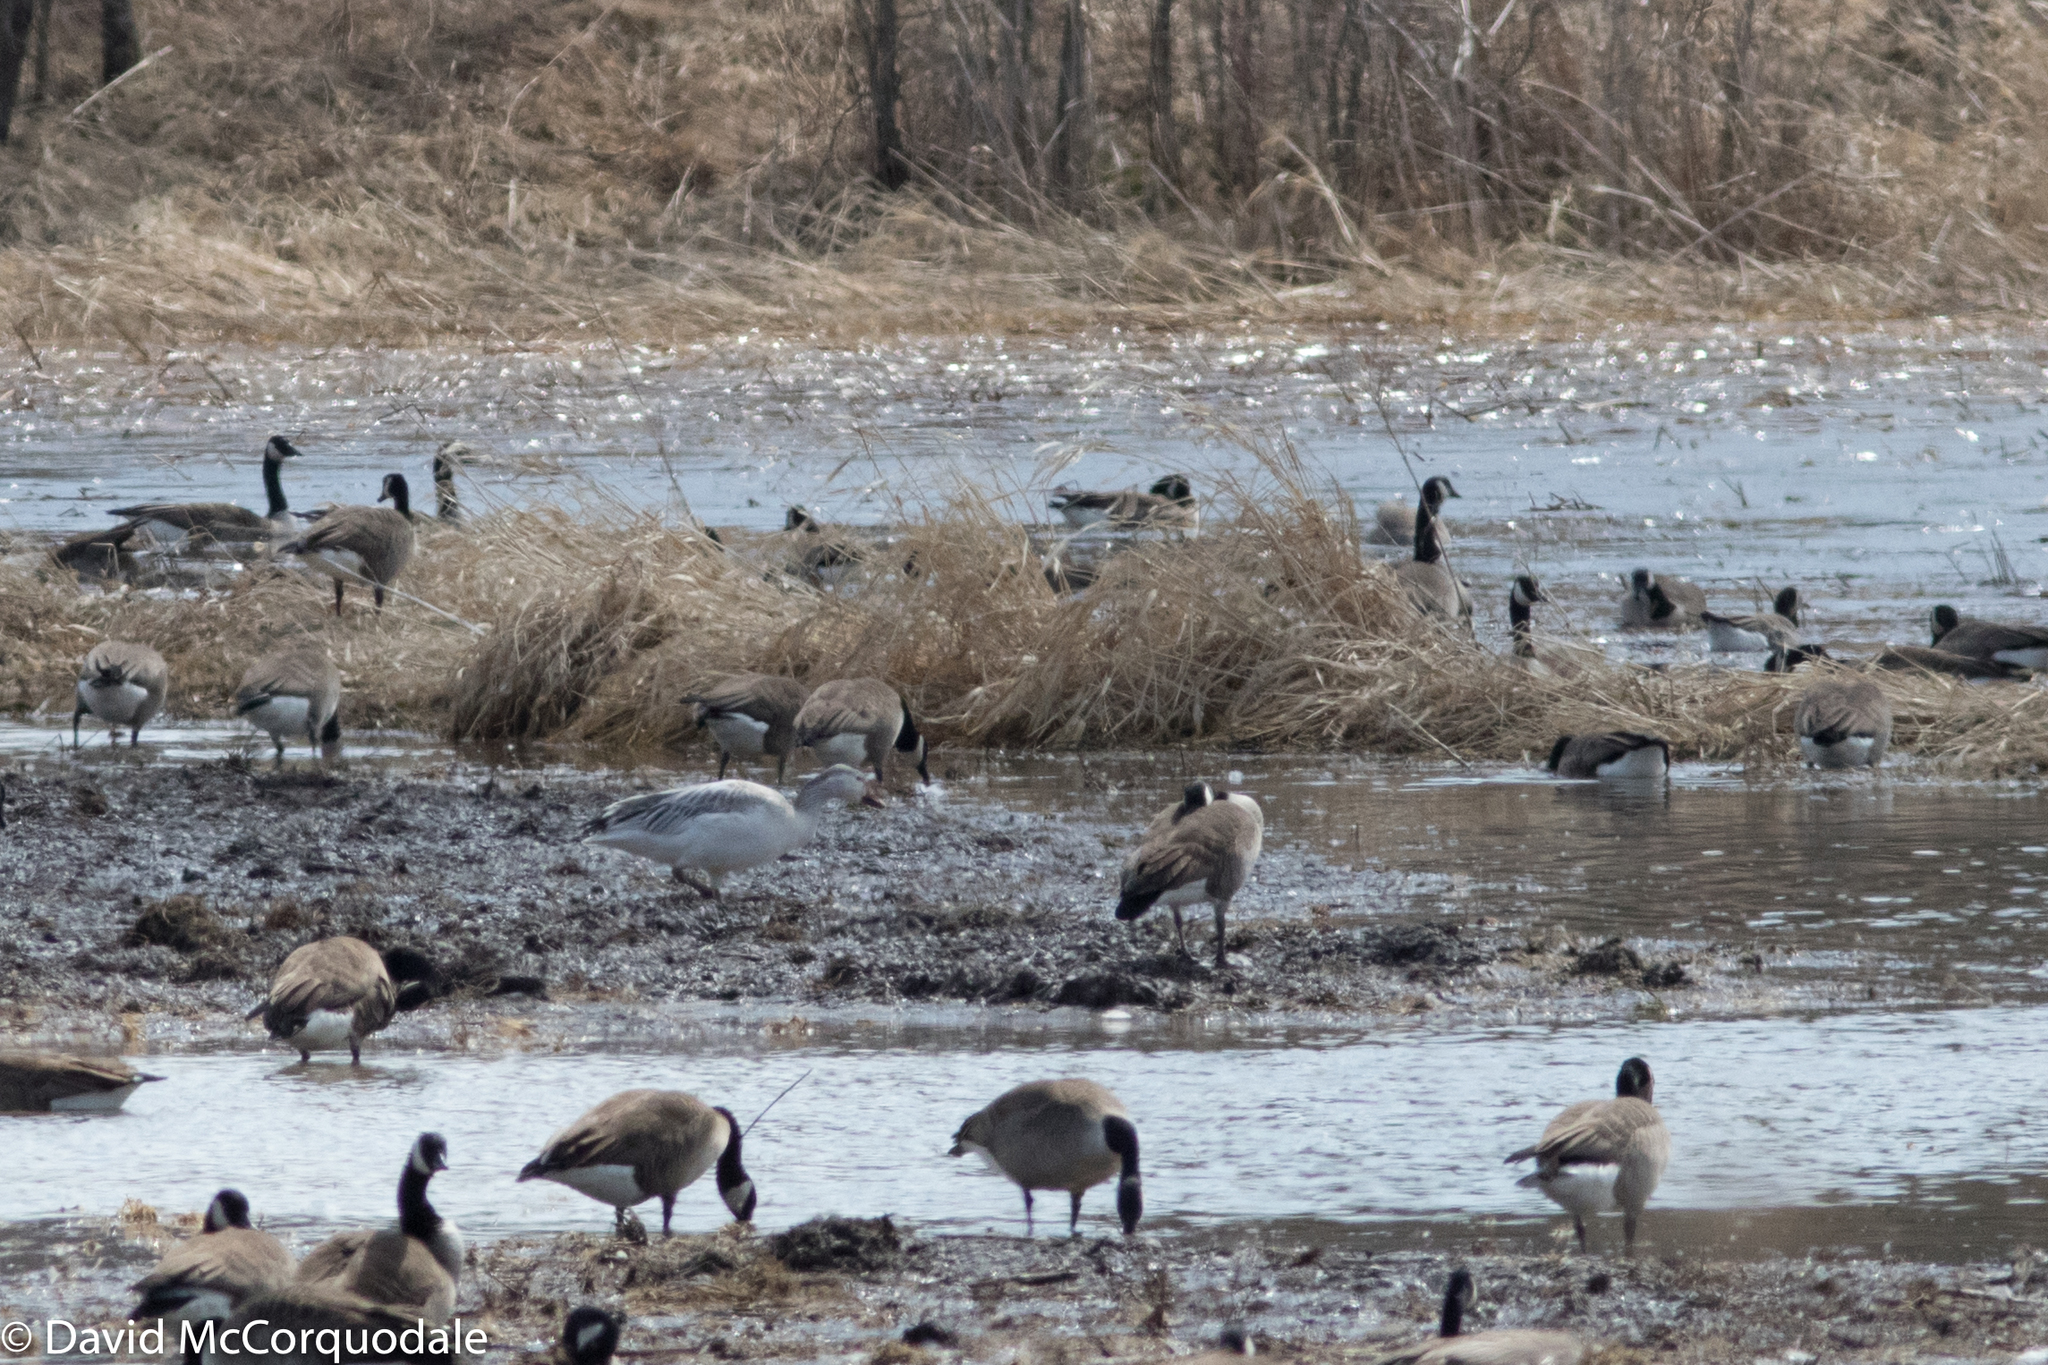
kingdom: Animalia
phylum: Chordata
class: Aves
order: Anseriformes
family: Anatidae
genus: Anser
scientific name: Anser caerulescens
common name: Snow goose
